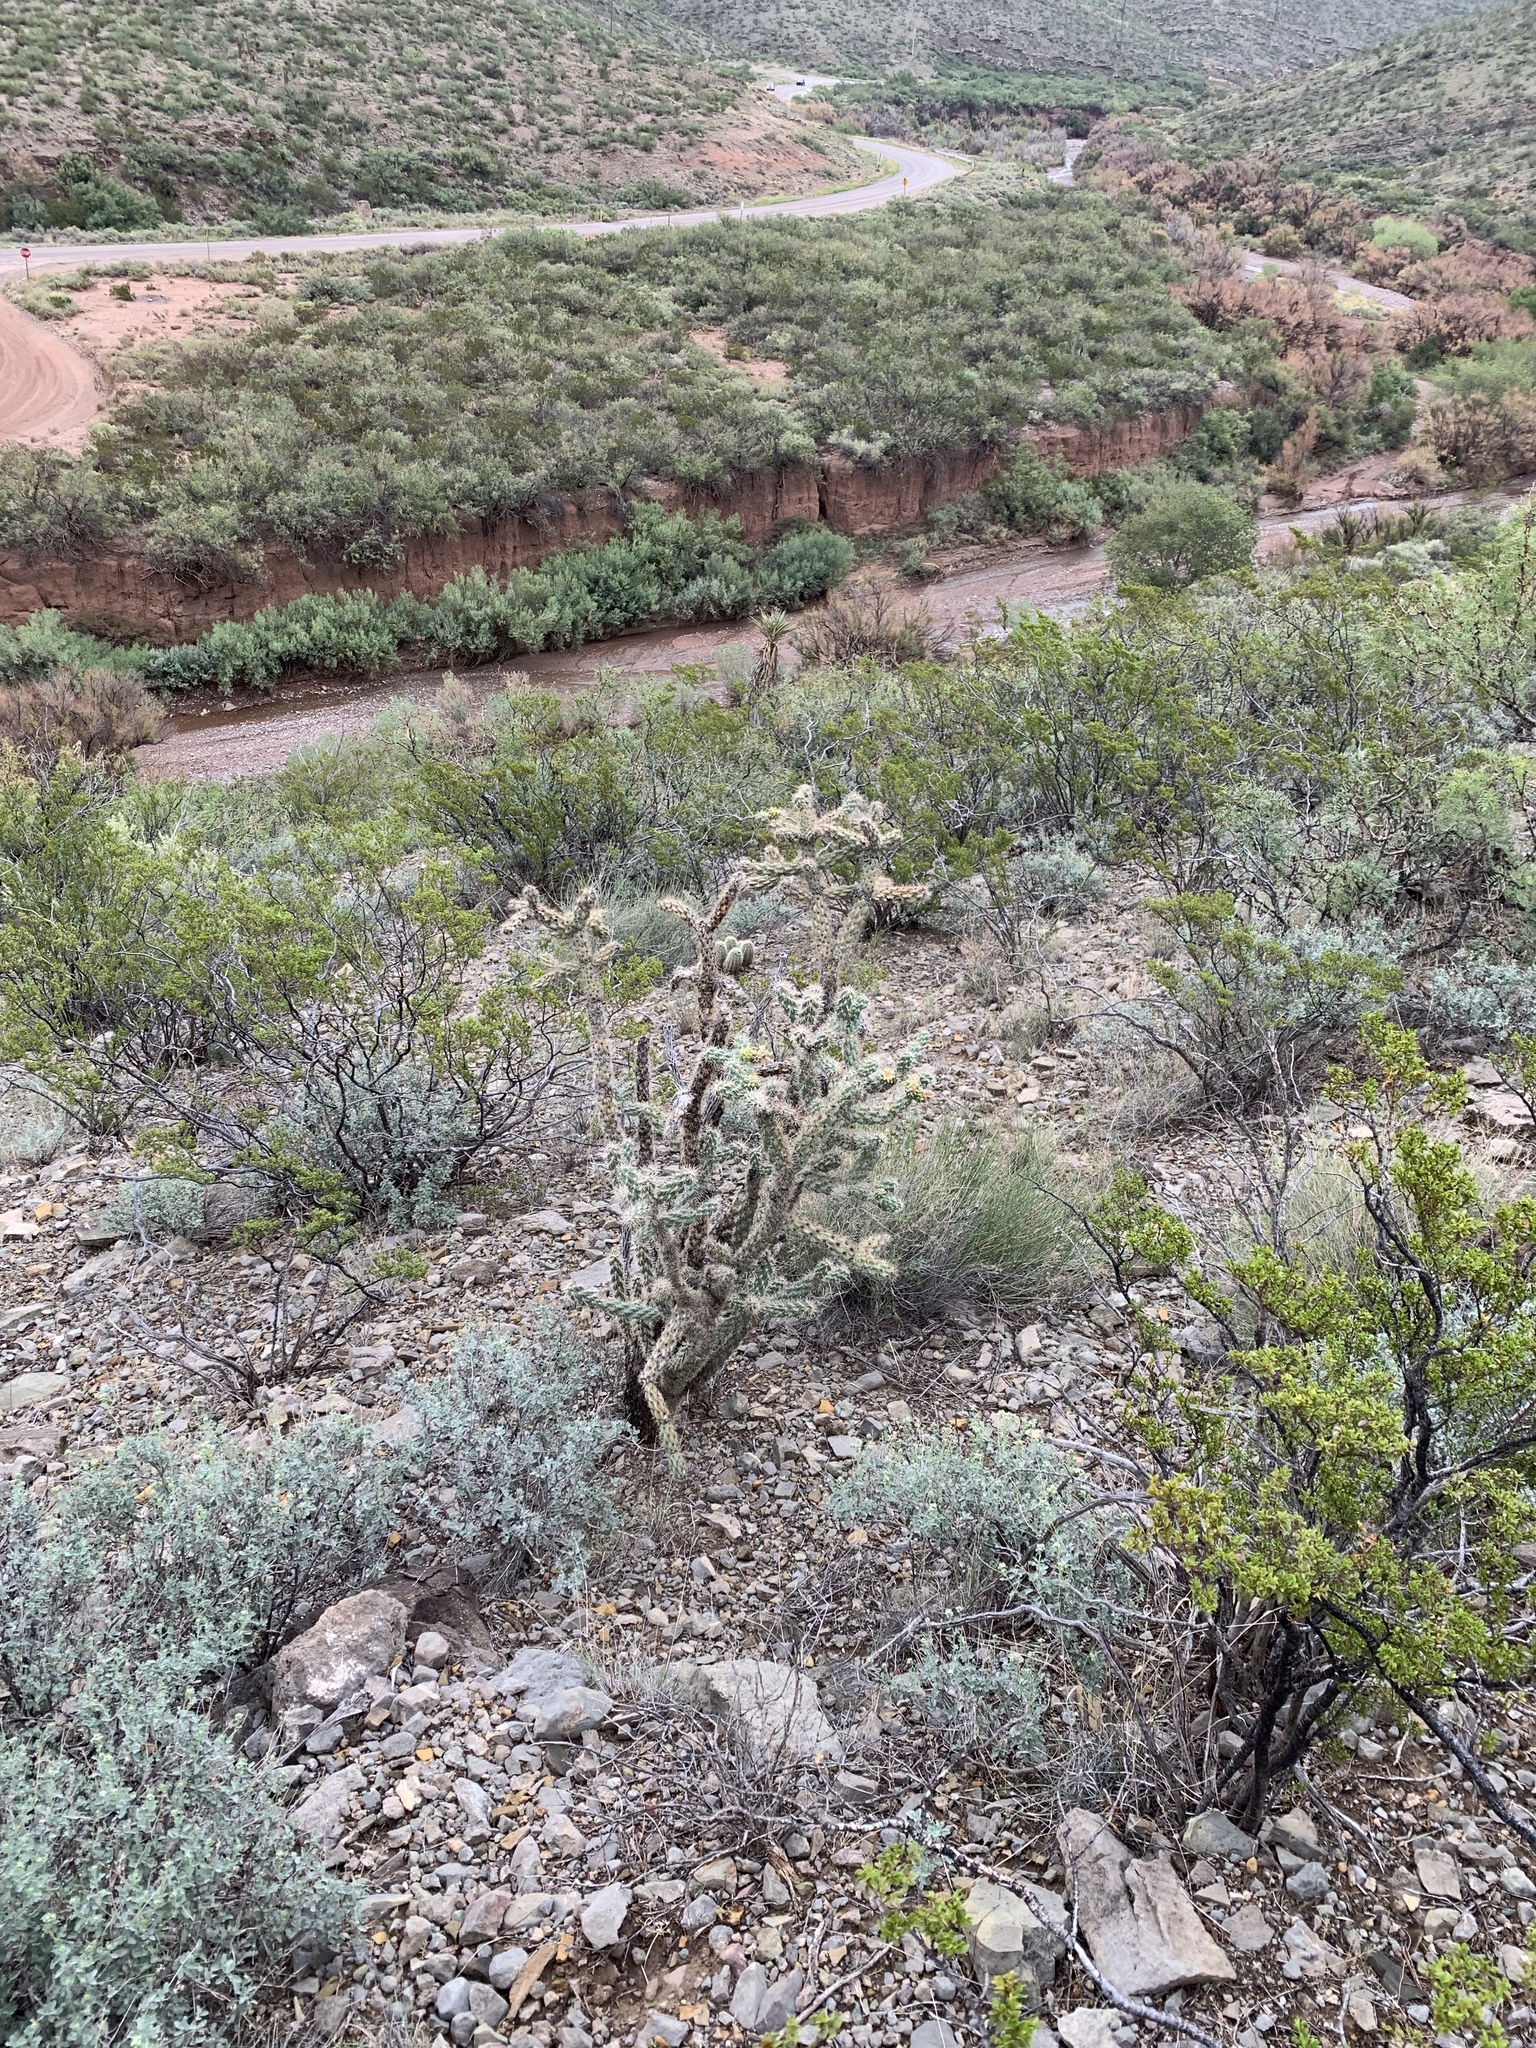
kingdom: Plantae
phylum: Tracheophyta
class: Magnoliopsida
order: Caryophyllales
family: Cactaceae
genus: Cylindropuntia
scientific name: Cylindropuntia imbricata
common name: Candelabrum cactus
